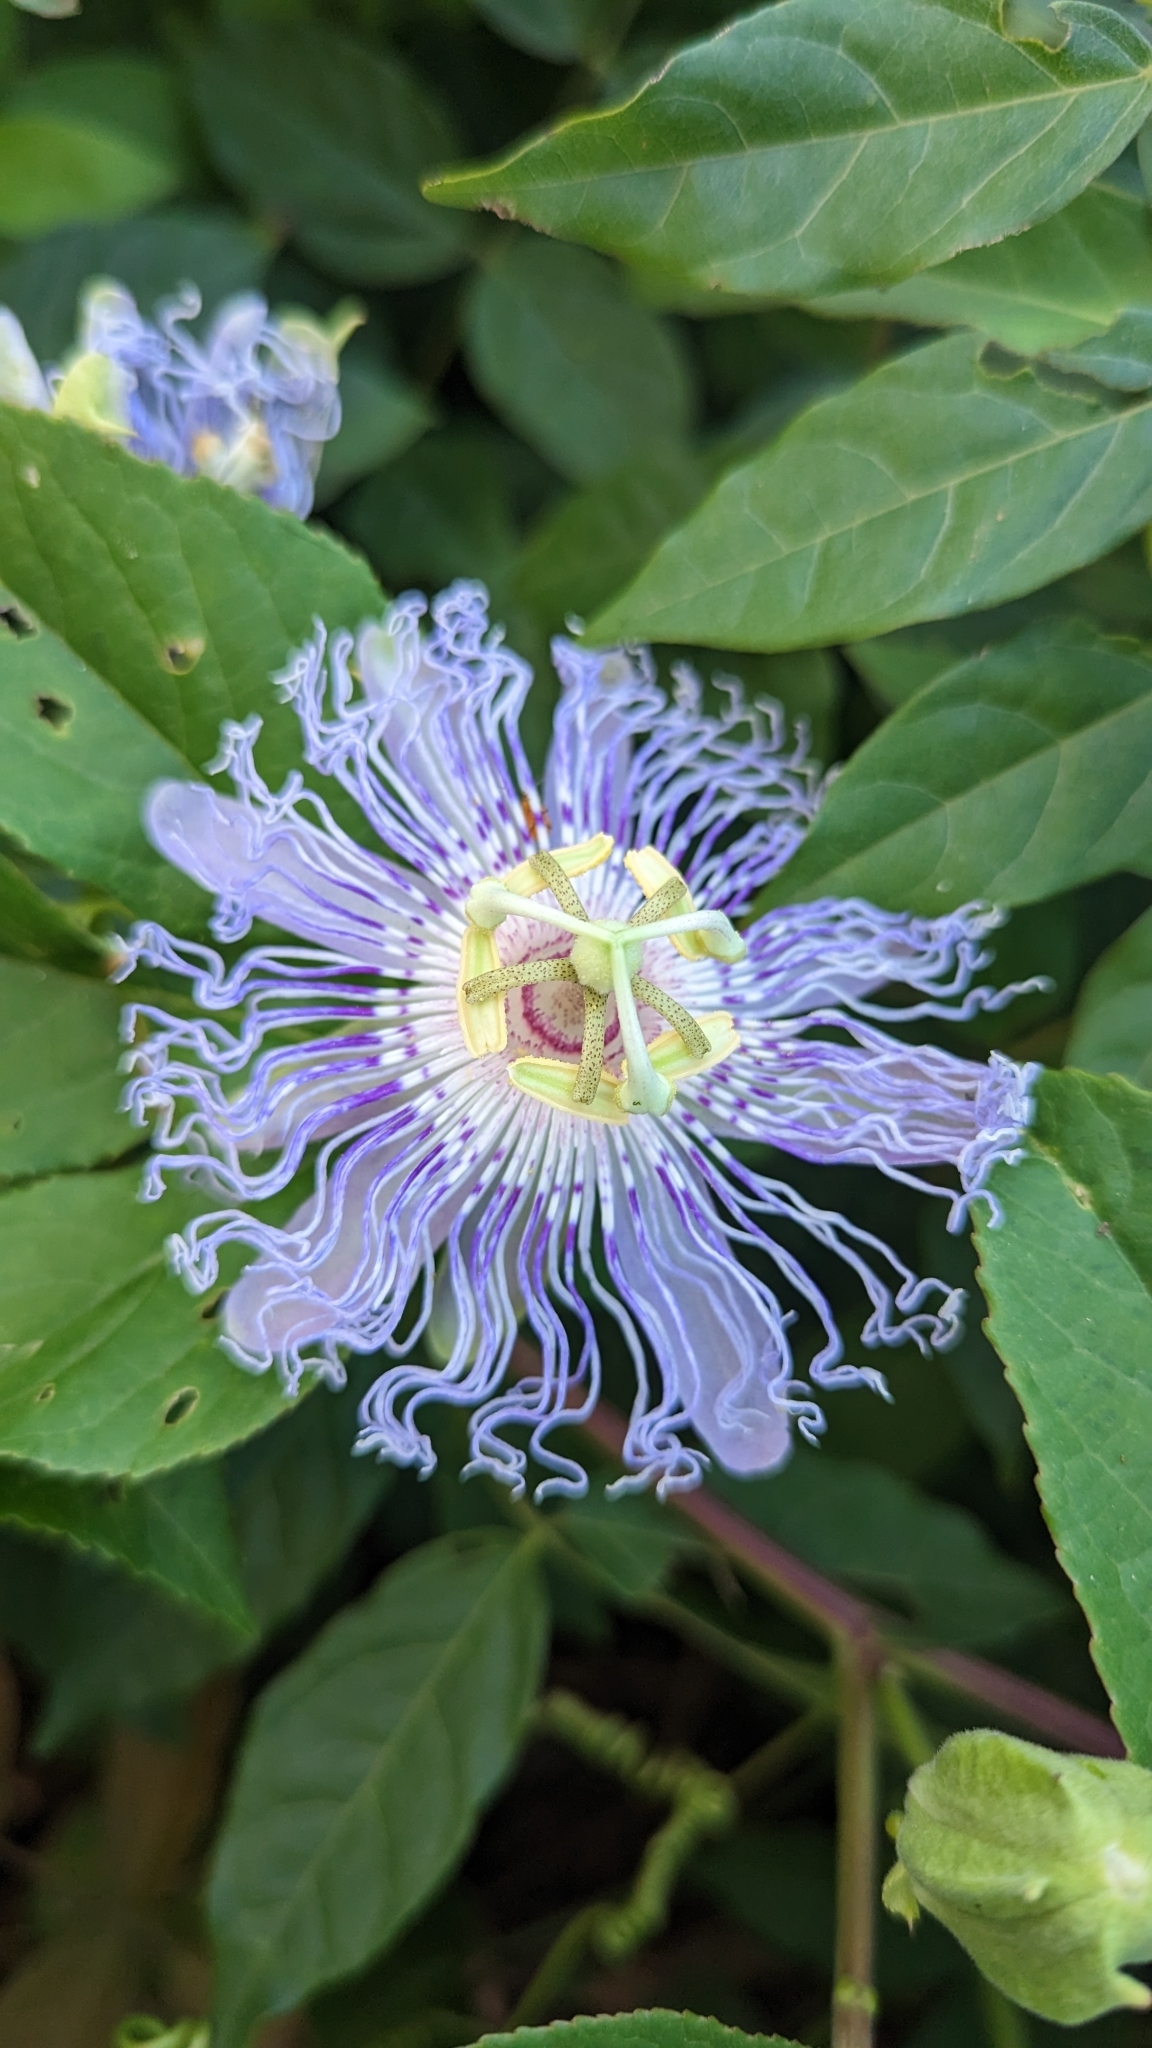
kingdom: Plantae
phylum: Tracheophyta
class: Magnoliopsida
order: Malpighiales
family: Passifloraceae
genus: Passiflora
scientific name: Passiflora incarnata
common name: Apricot-vine
